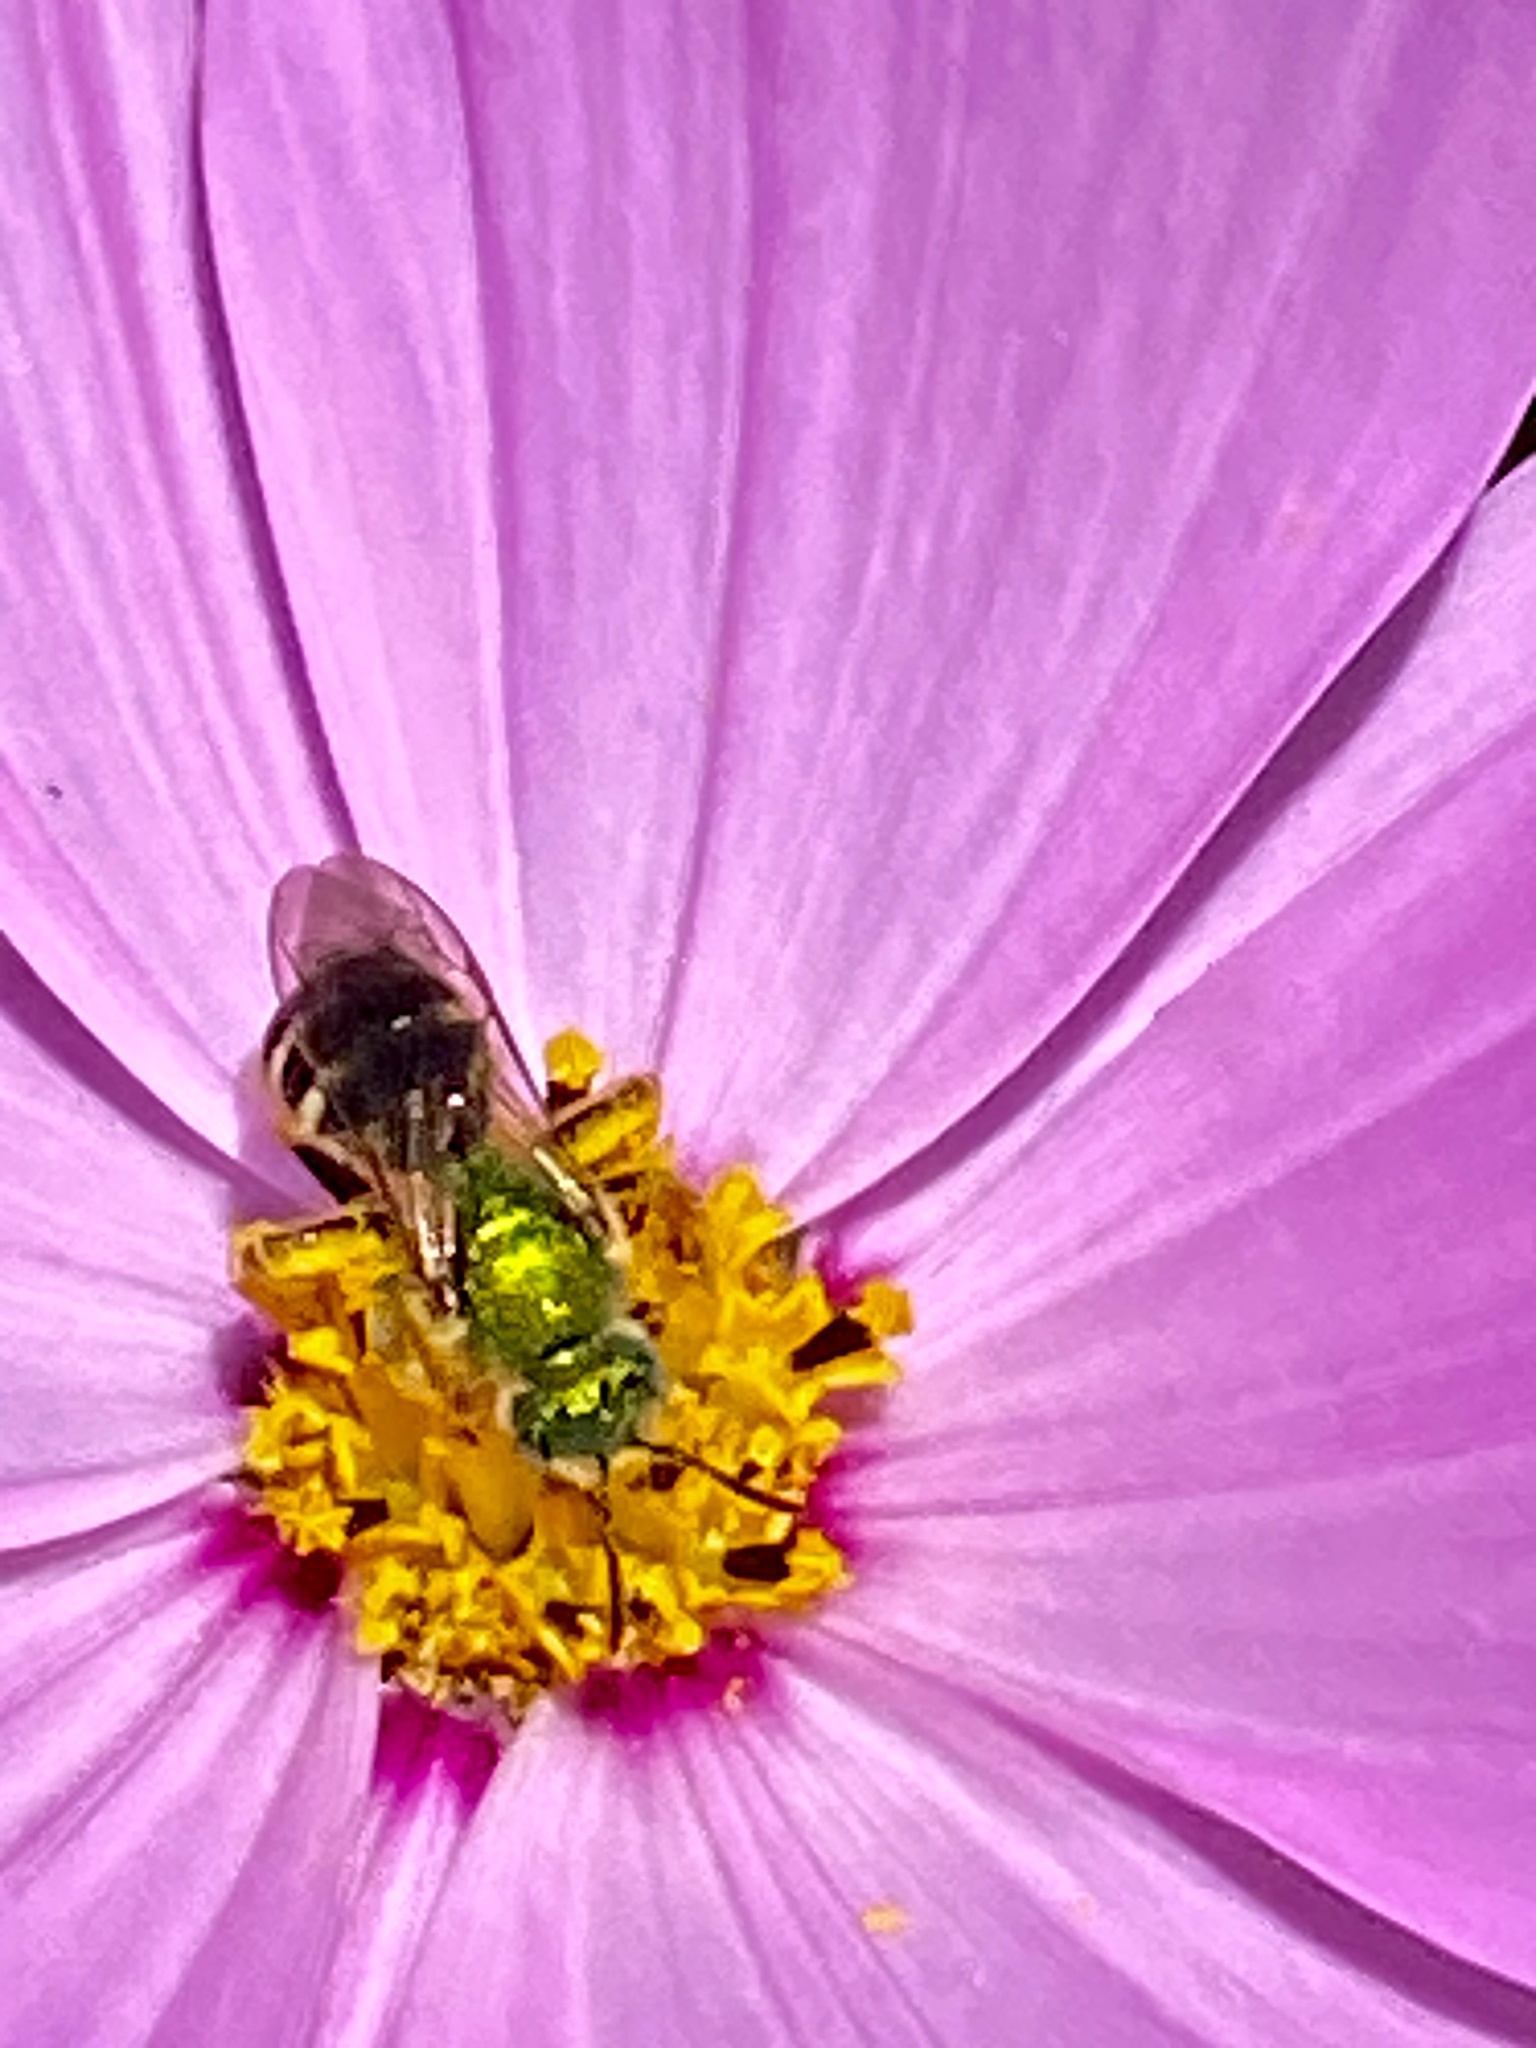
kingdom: Animalia
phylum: Arthropoda
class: Insecta
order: Hymenoptera
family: Halictidae
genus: Agapostemon
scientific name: Agapostemon virescens
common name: Bicolored striped sweat bee
